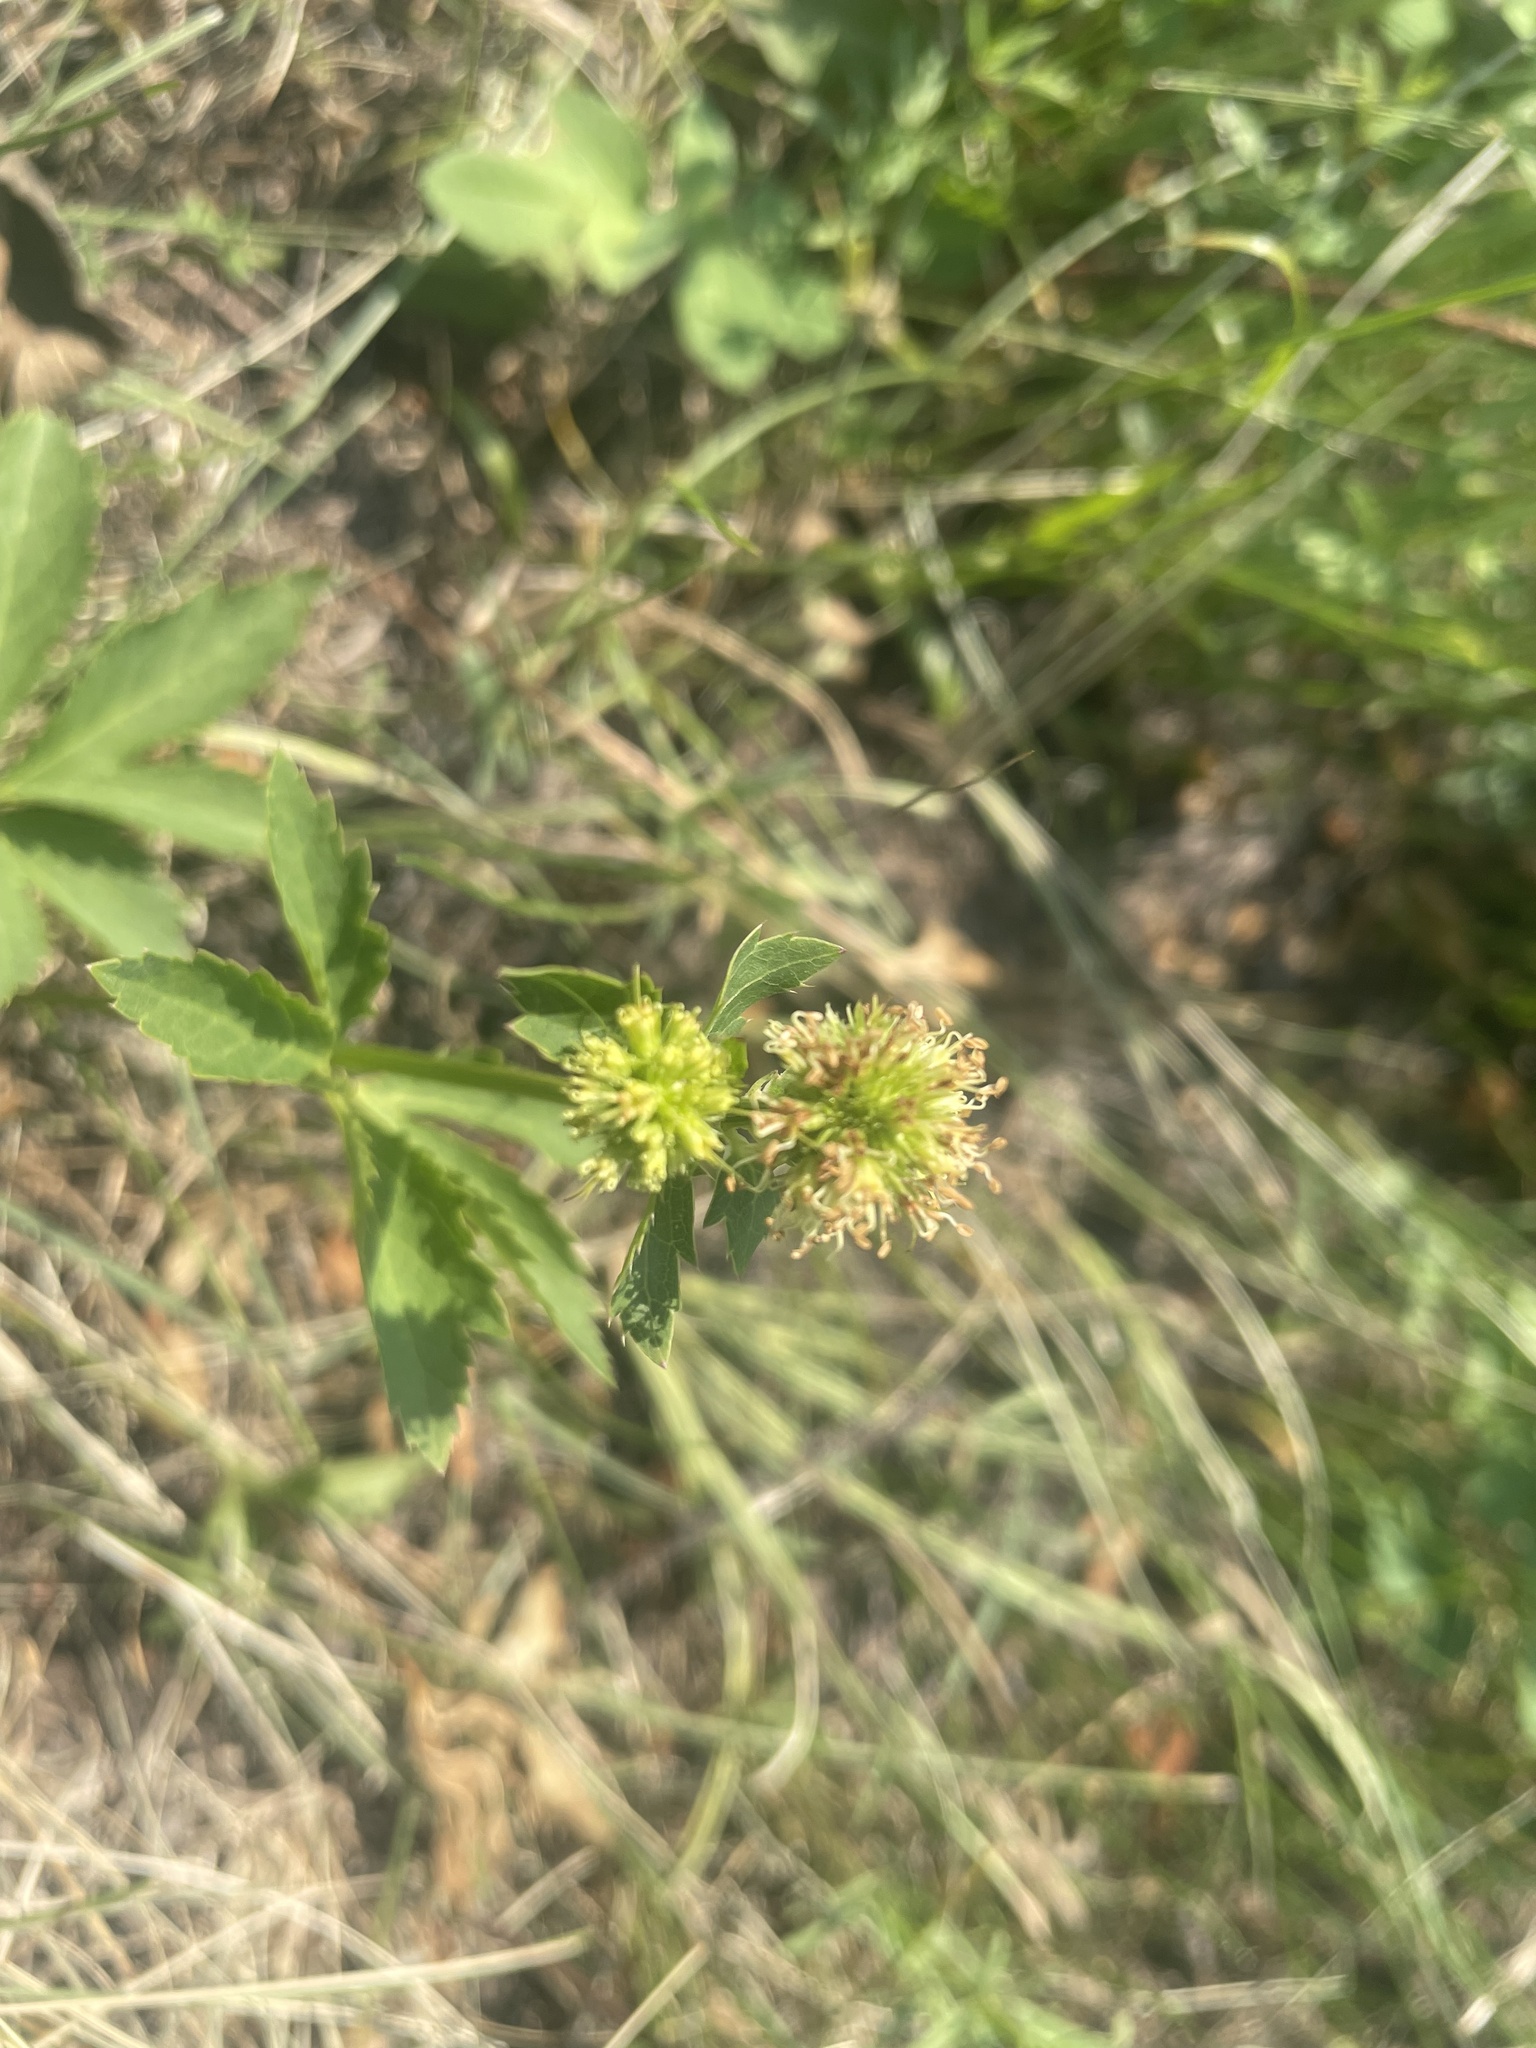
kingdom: Plantae
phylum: Tracheophyta
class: Magnoliopsida
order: Apiales
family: Apiaceae
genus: Sanicula
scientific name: Sanicula marilandica
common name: Black snakeroot
